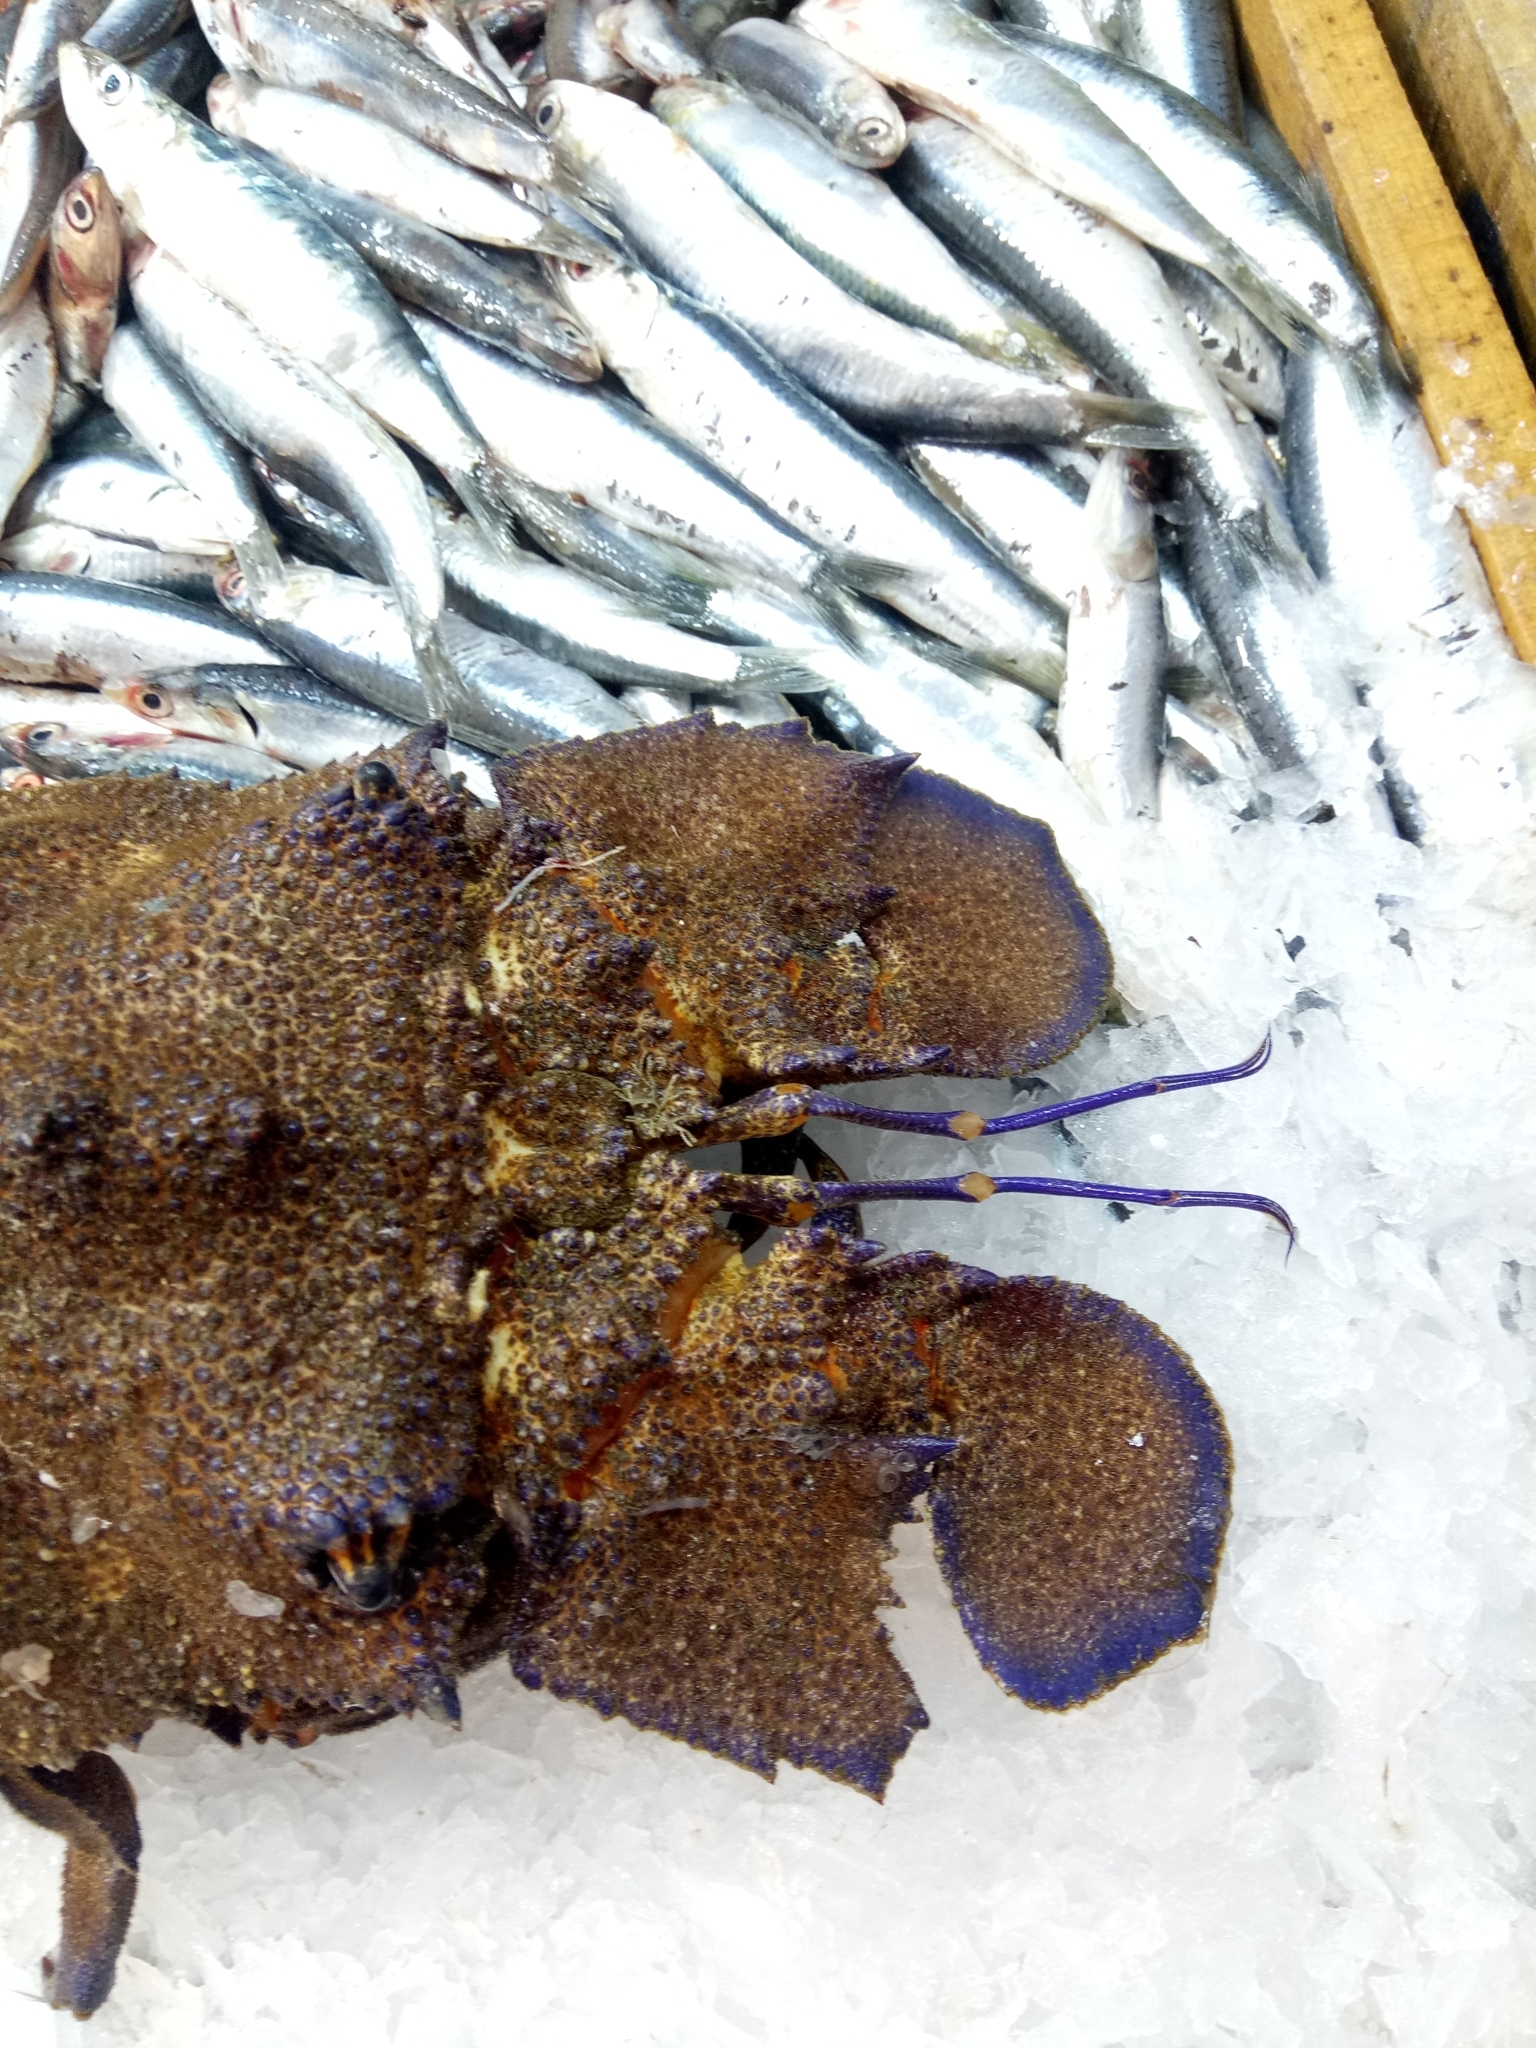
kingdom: Animalia
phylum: Arthropoda
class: Malacostraca
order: Decapoda
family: Scyllaridae
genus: Scyllarides
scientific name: Scyllarides latus
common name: Mediterranean slipper lobster
